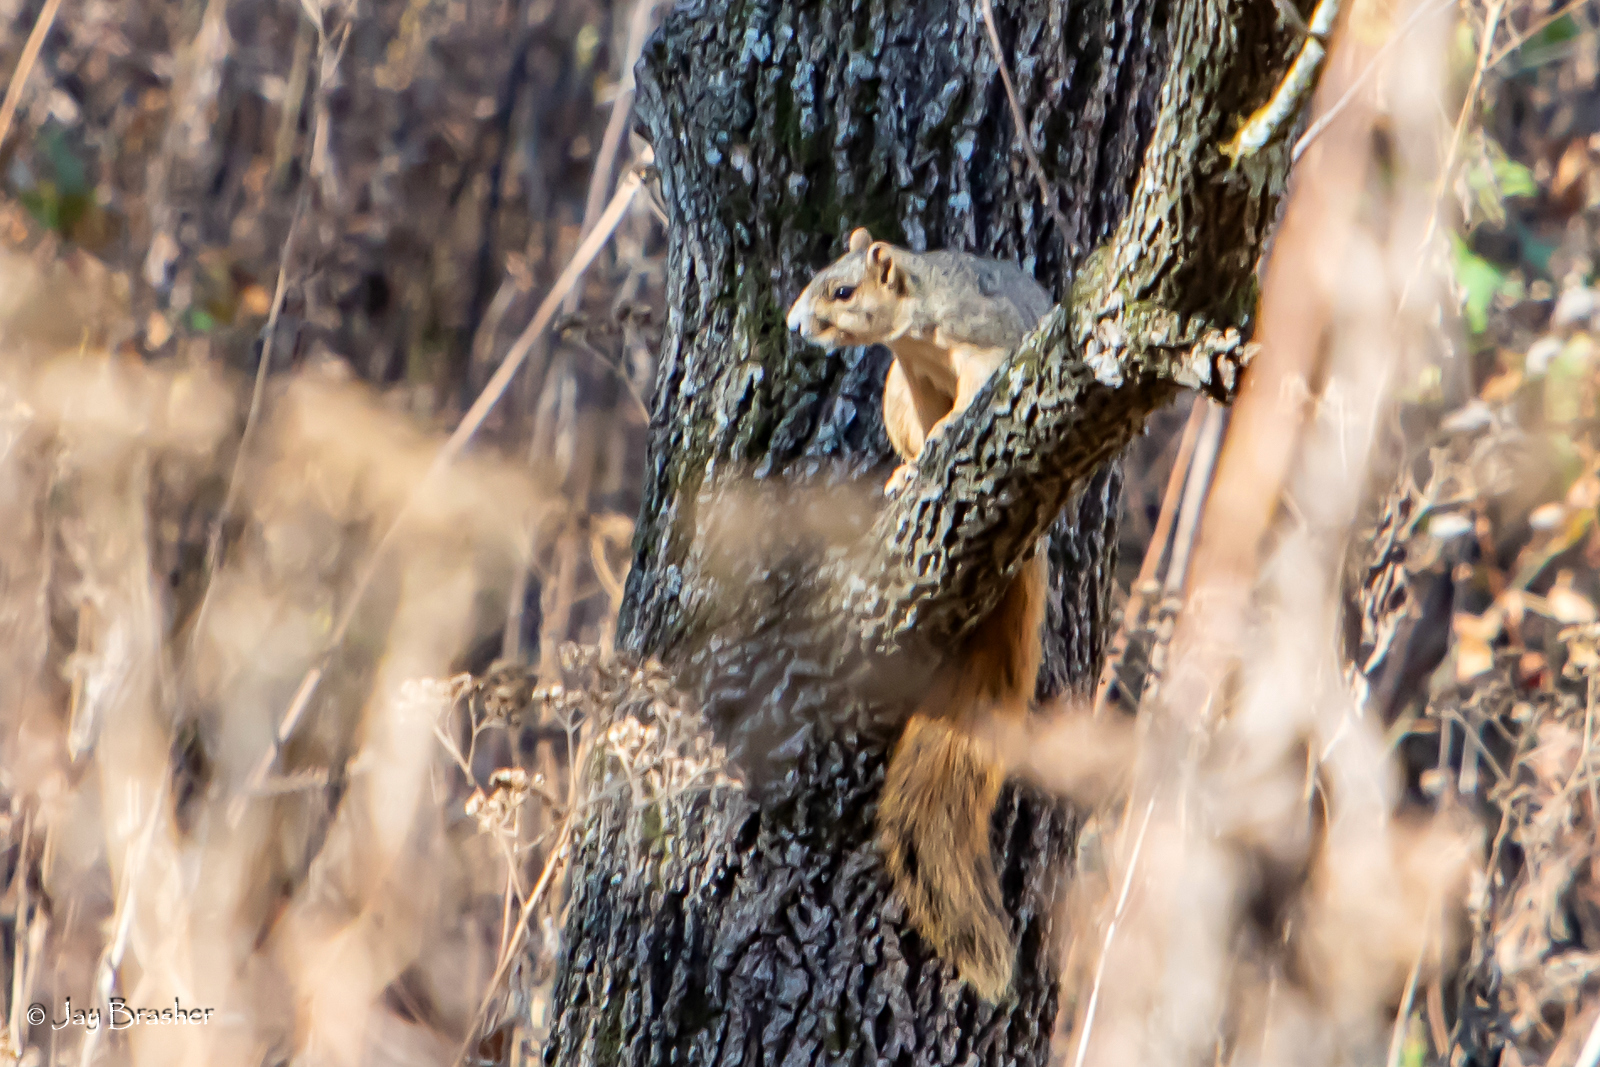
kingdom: Animalia
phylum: Chordata
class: Mammalia
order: Rodentia
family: Sciuridae
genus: Sciurus
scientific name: Sciurus niger
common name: Fox squirrel
